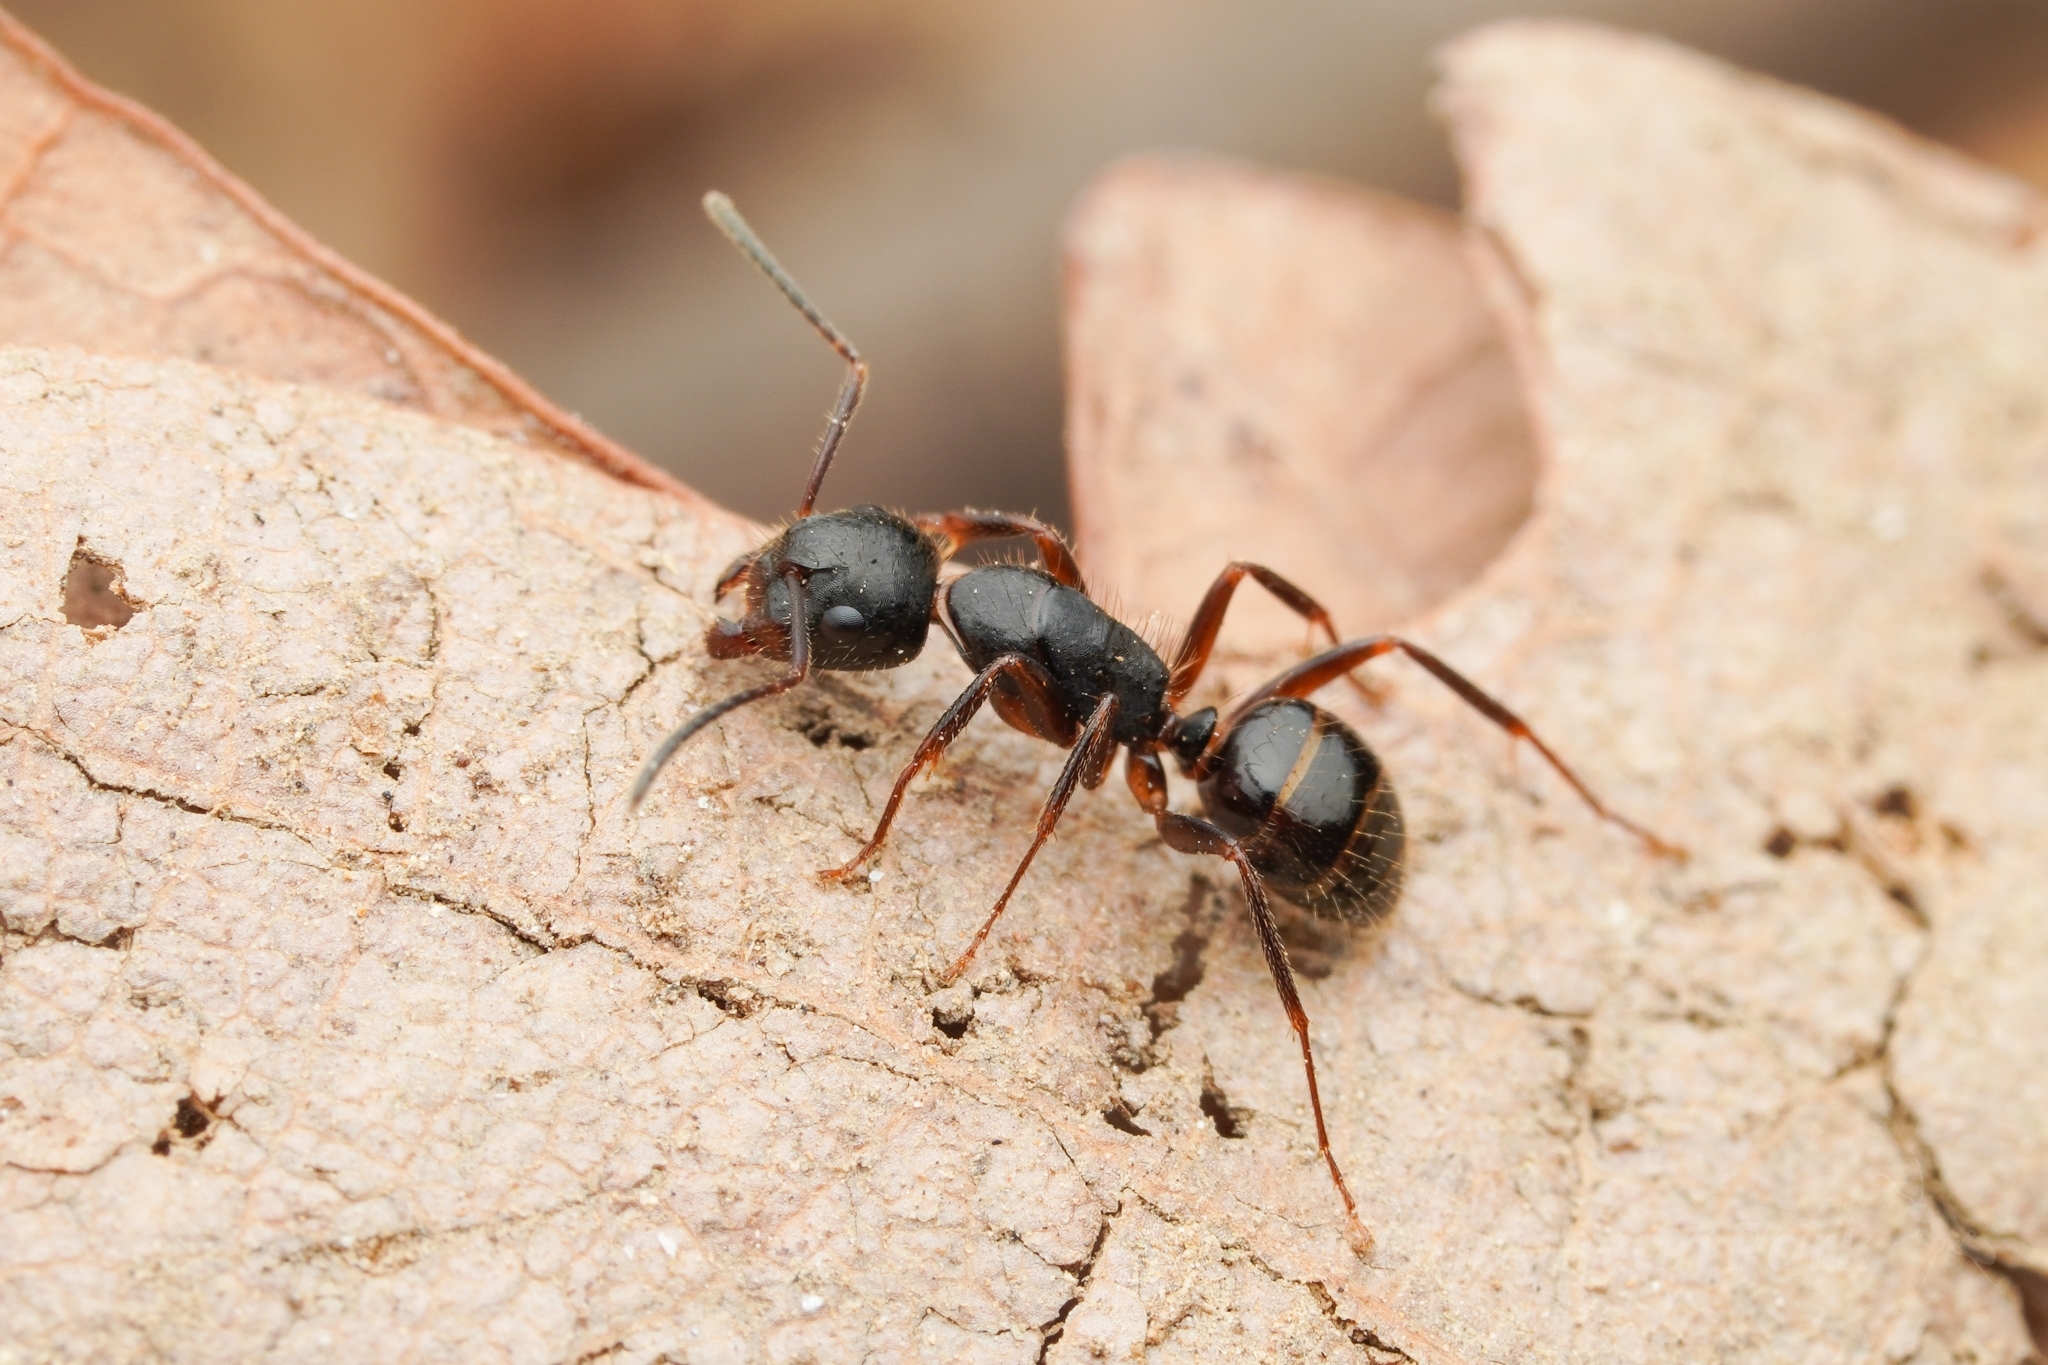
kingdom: Animalia
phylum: Arthropoda
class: Insecta
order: Hymenoptera
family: Formicidae
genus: Camponotus
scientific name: Camponotus nipponensis
